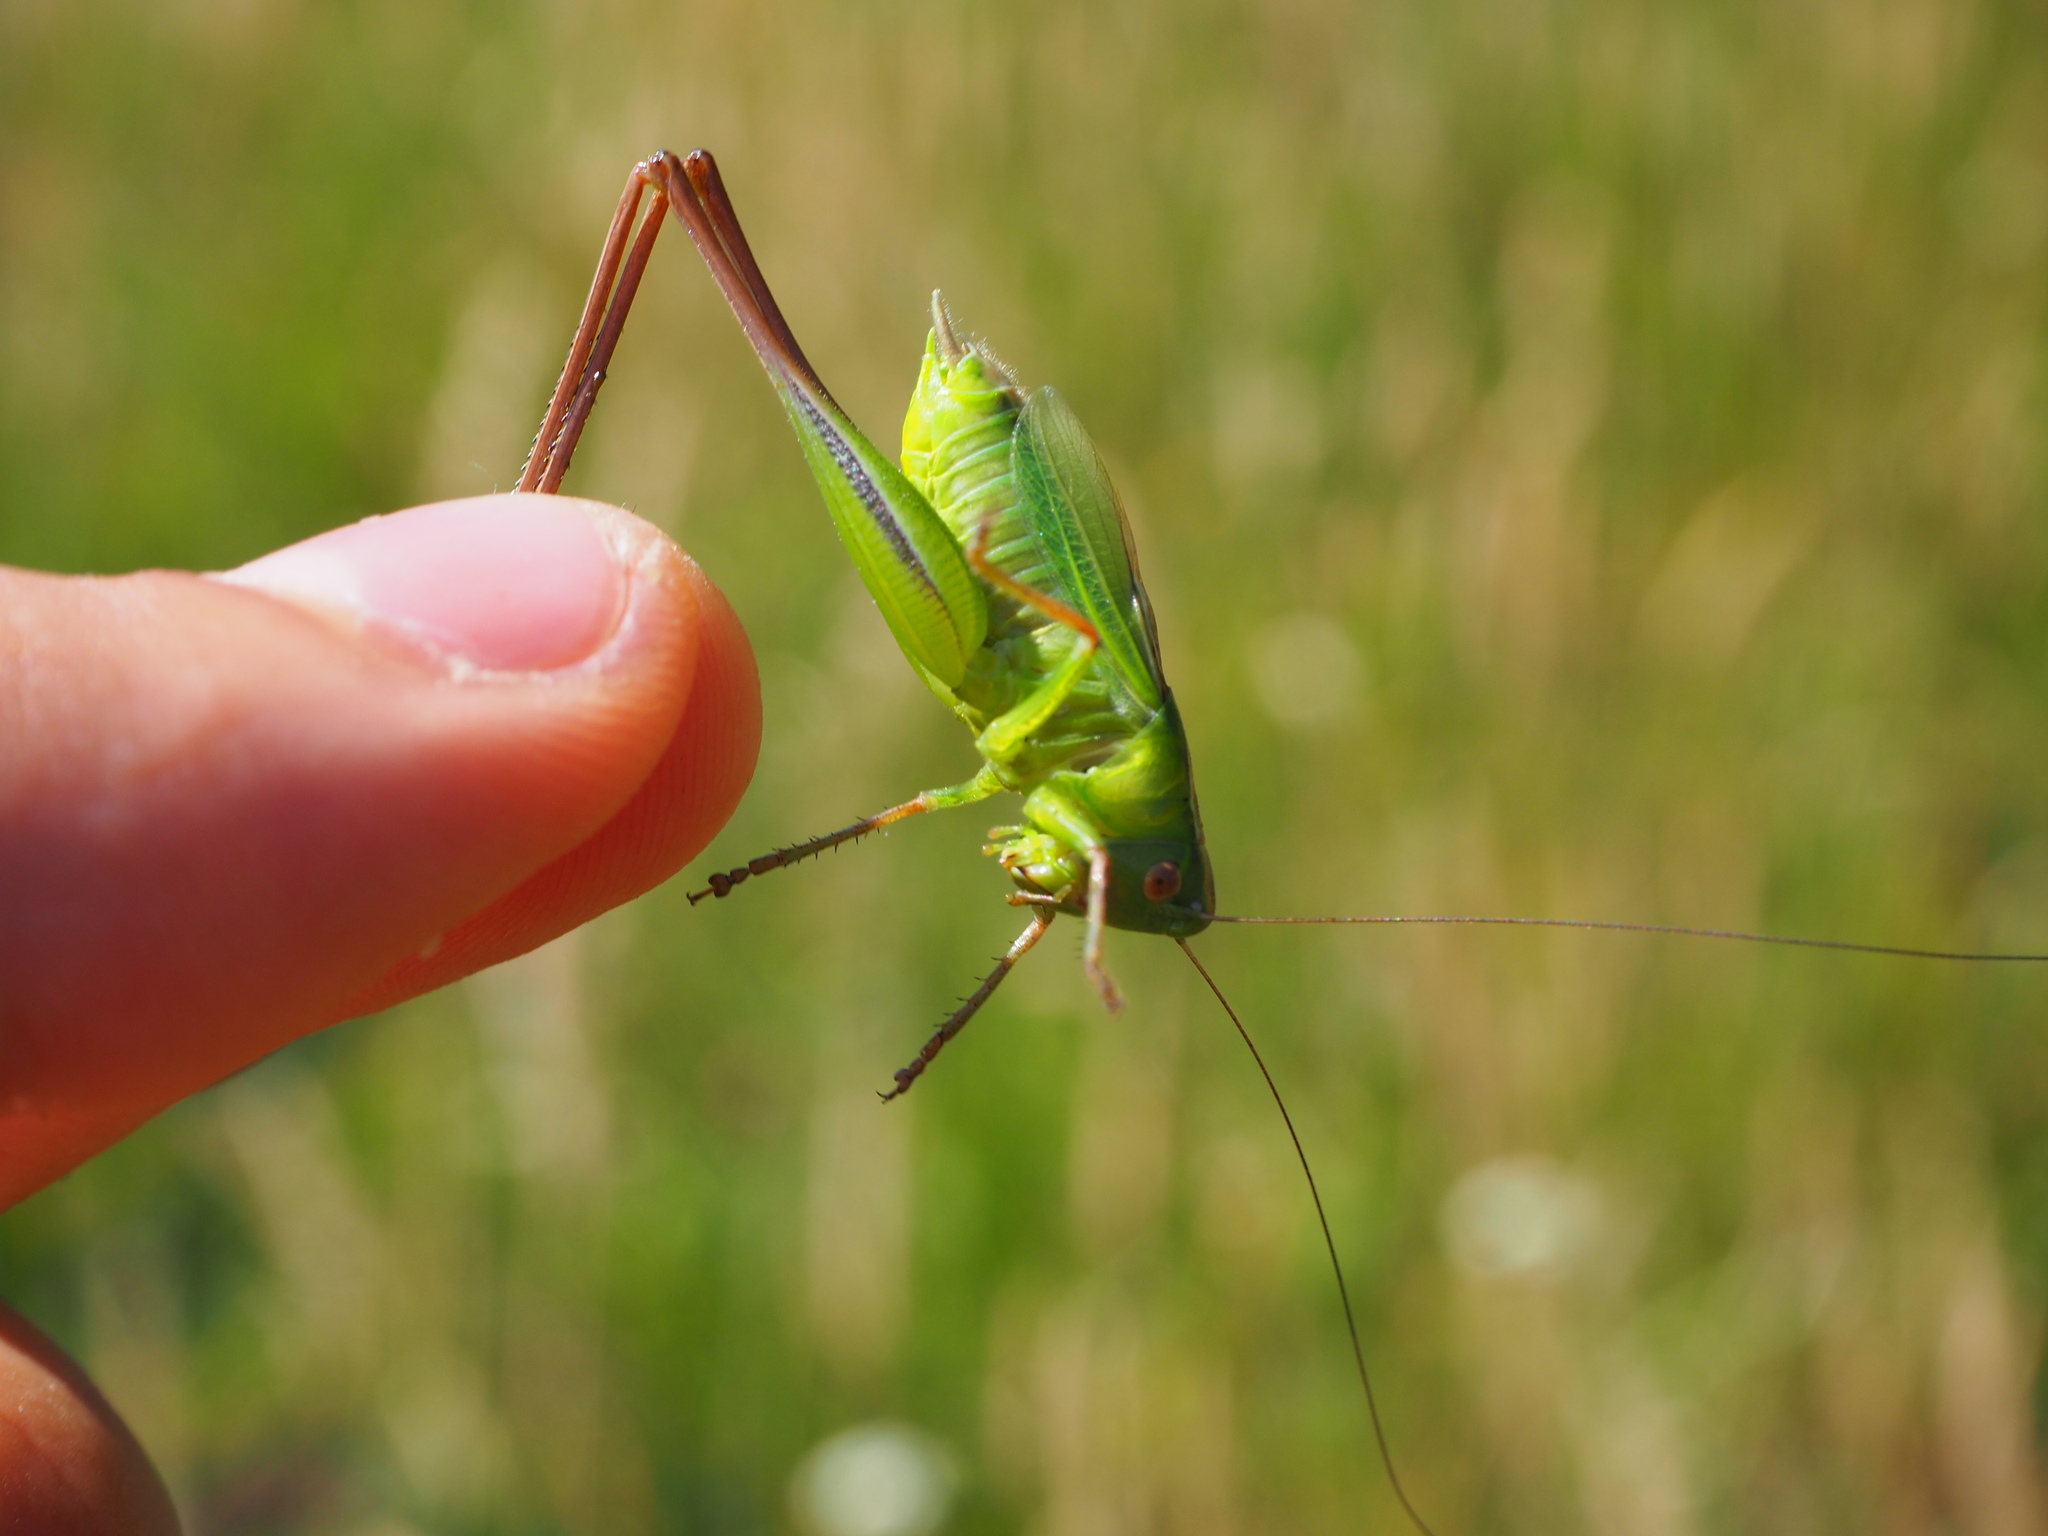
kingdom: Animalia
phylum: Arthropoda
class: Insecta
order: Orthoptera
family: Tettigoniidae
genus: Bicolorana
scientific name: Bicolorana bicolor
